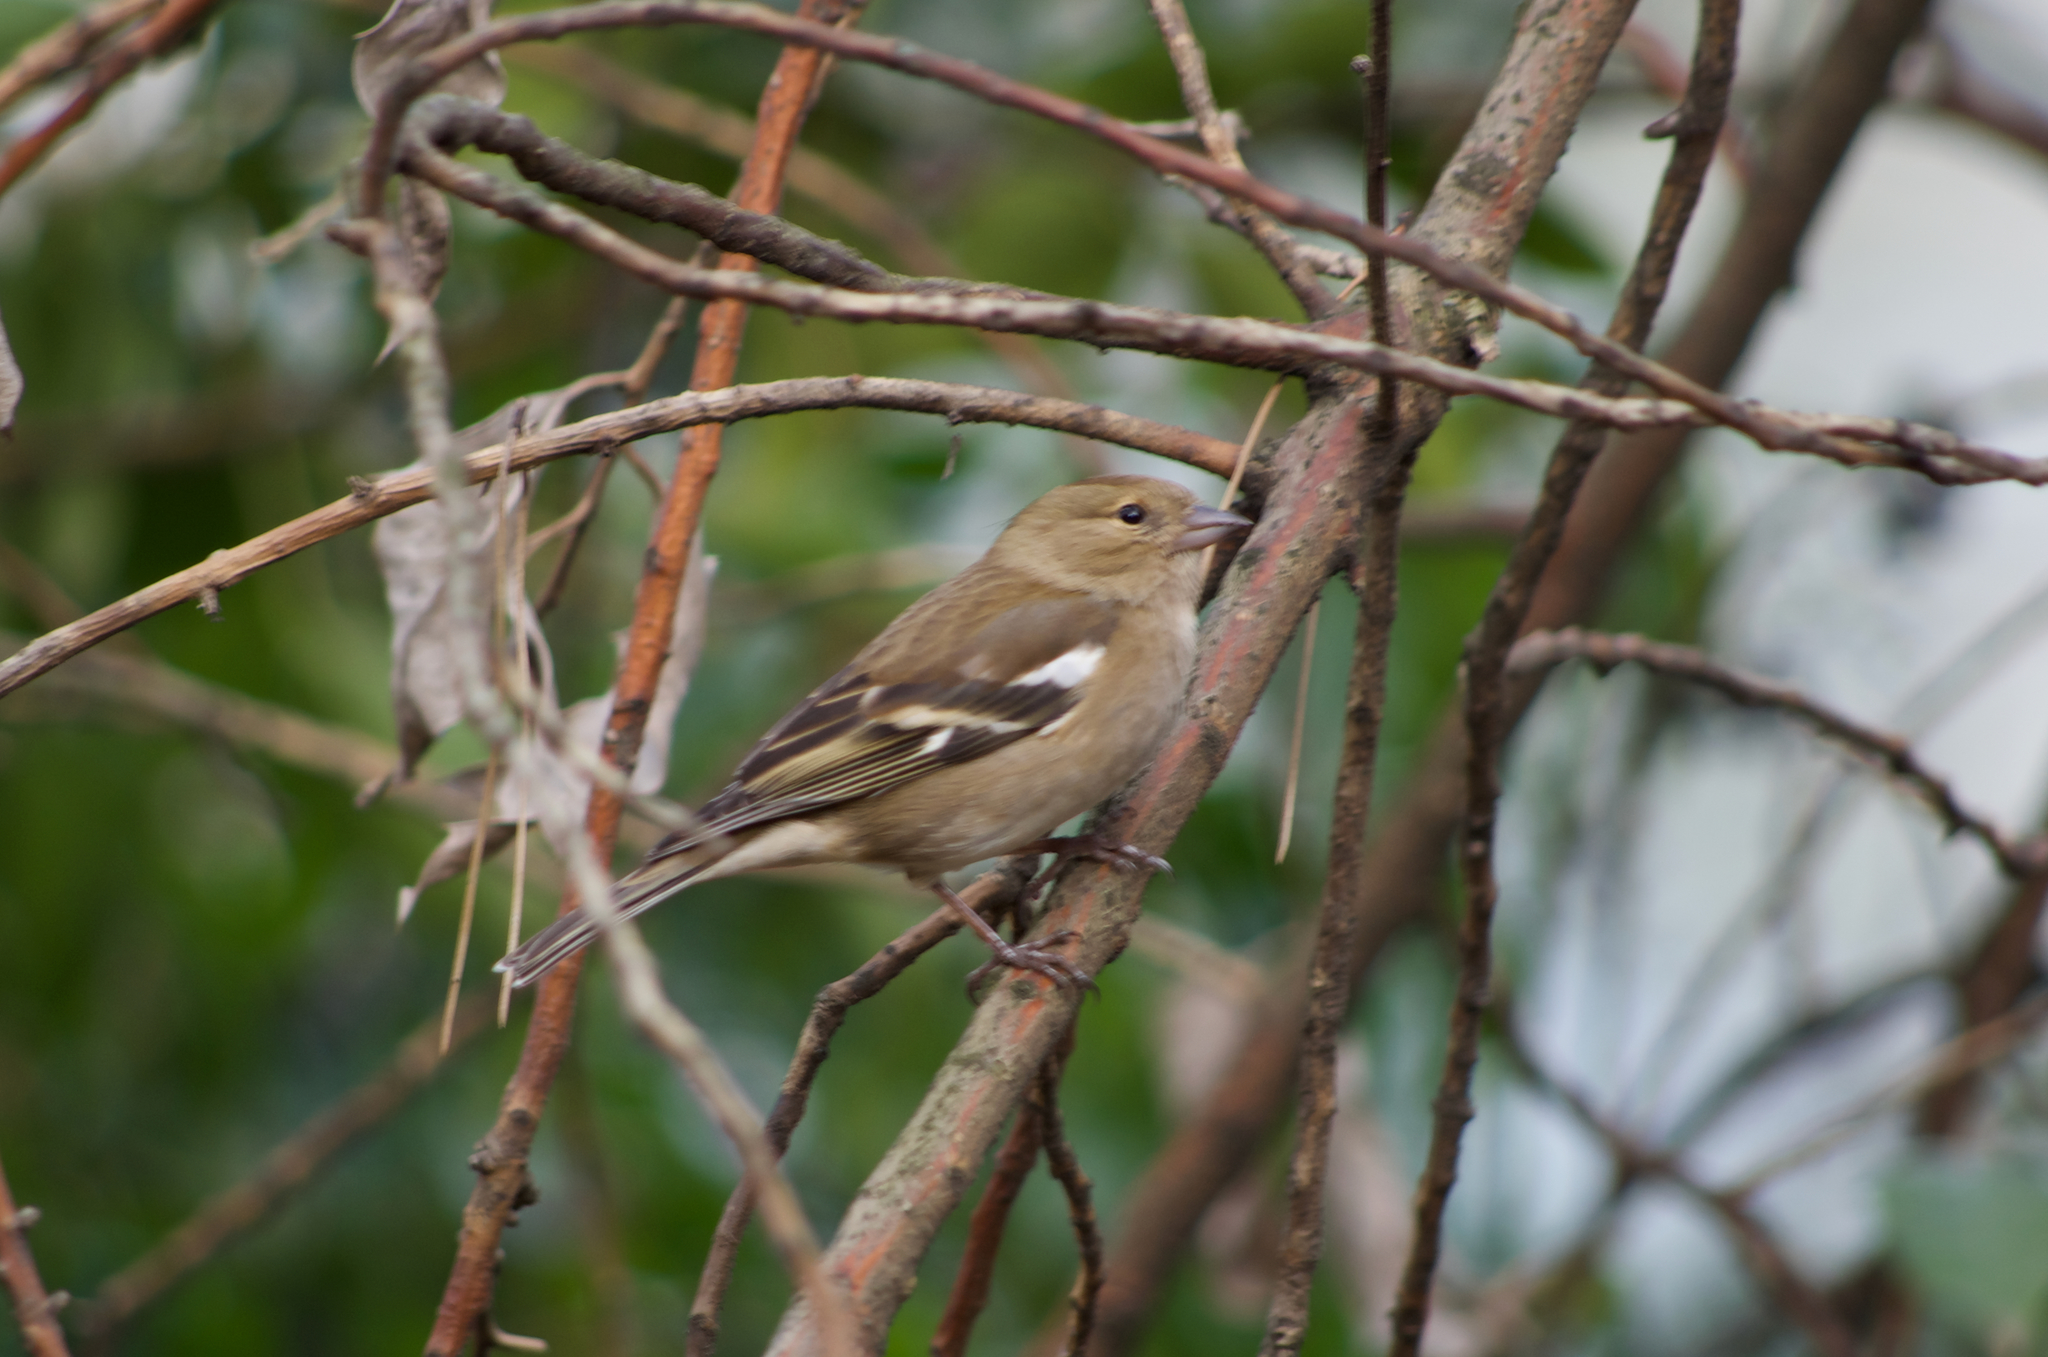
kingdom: Animalia
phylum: Chordata
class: Aves
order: Passeriformes
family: Fringillidae
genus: Fringilla
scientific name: Fringilla coelebs
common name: Common chaffinch
